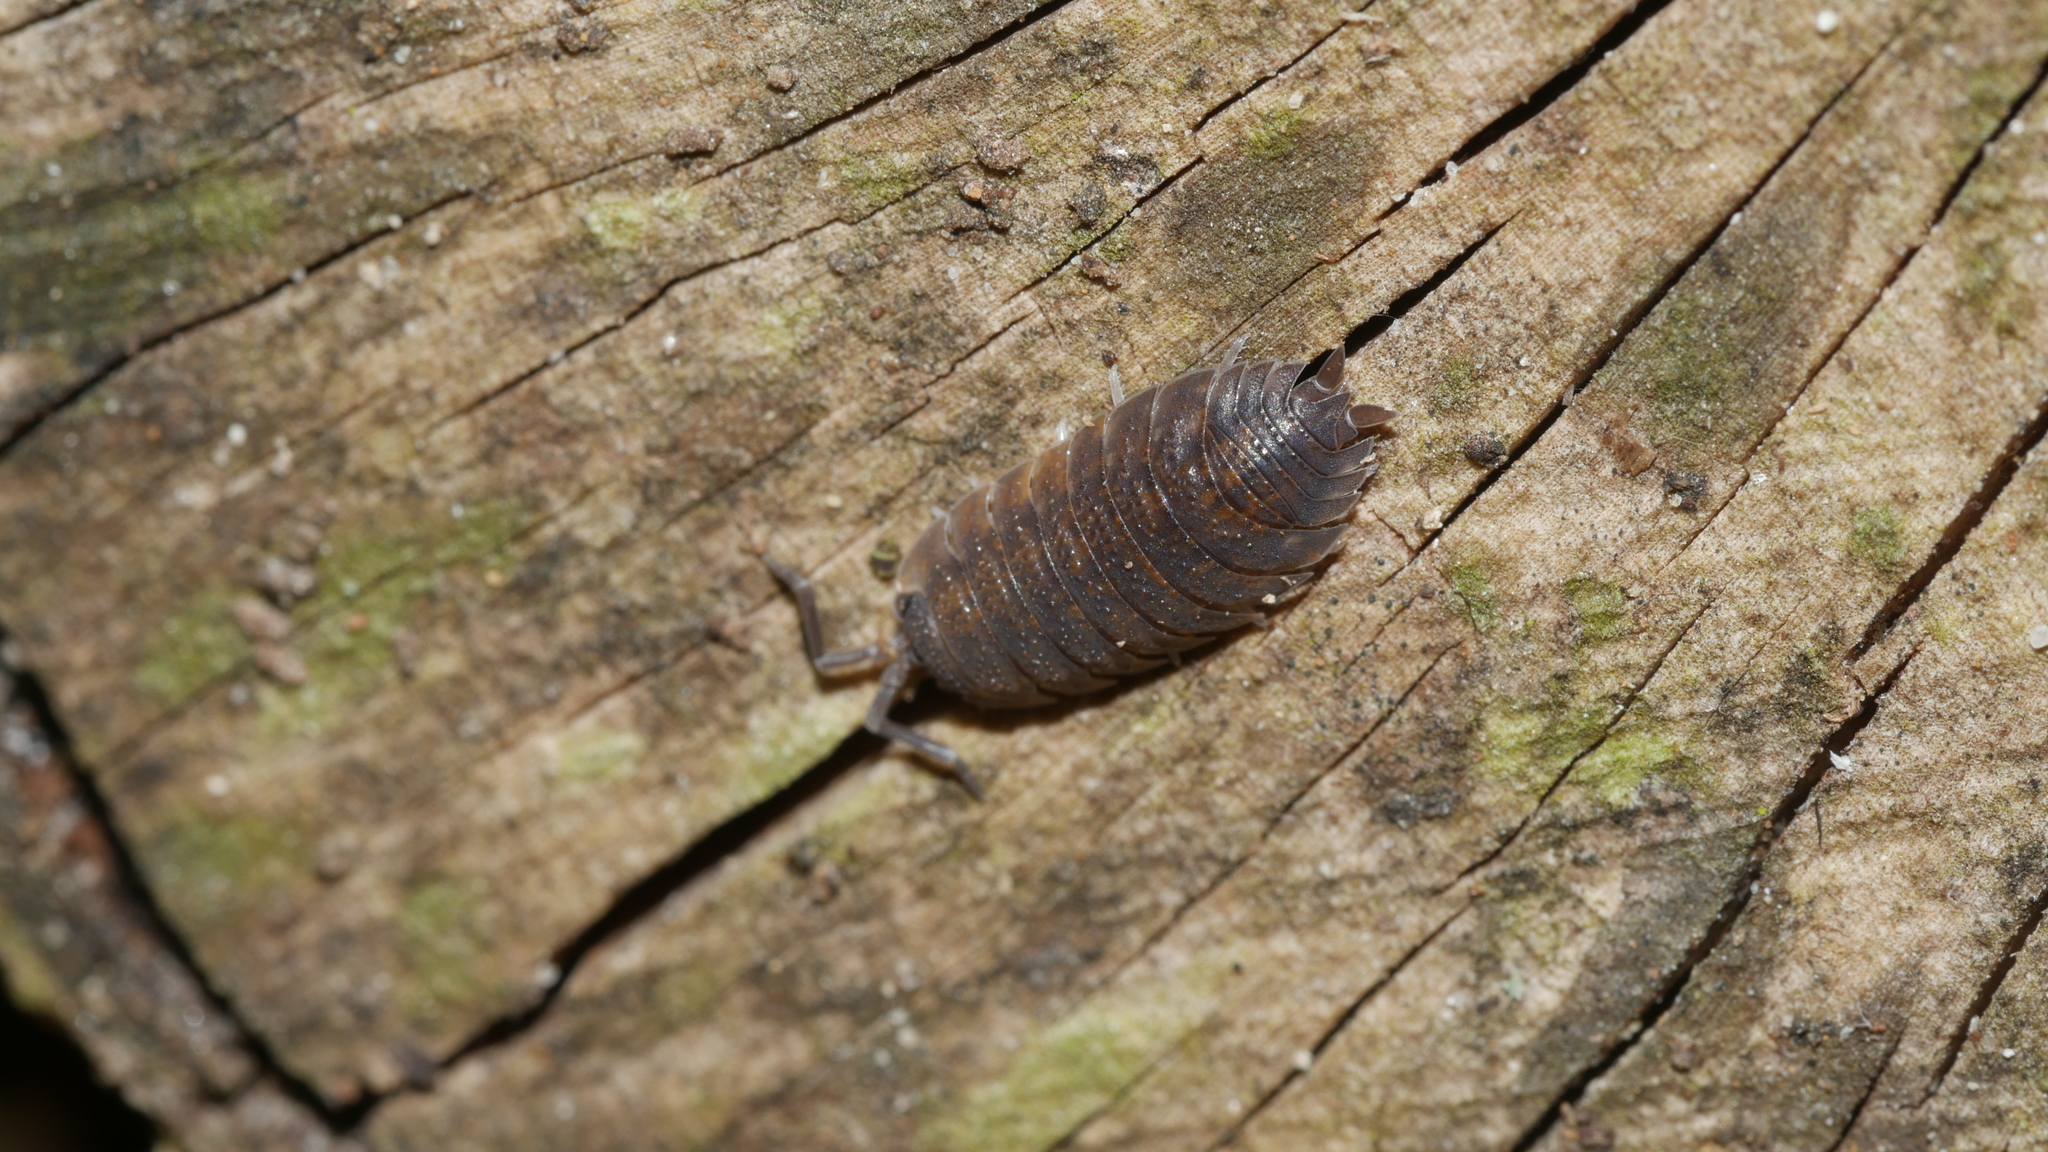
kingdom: Animalia
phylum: Arthropoda
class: Malacostraca
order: Isopoda
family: Porcellionidae
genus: Porcellio
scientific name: Porcellio scaber
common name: Common rough woodlouse
